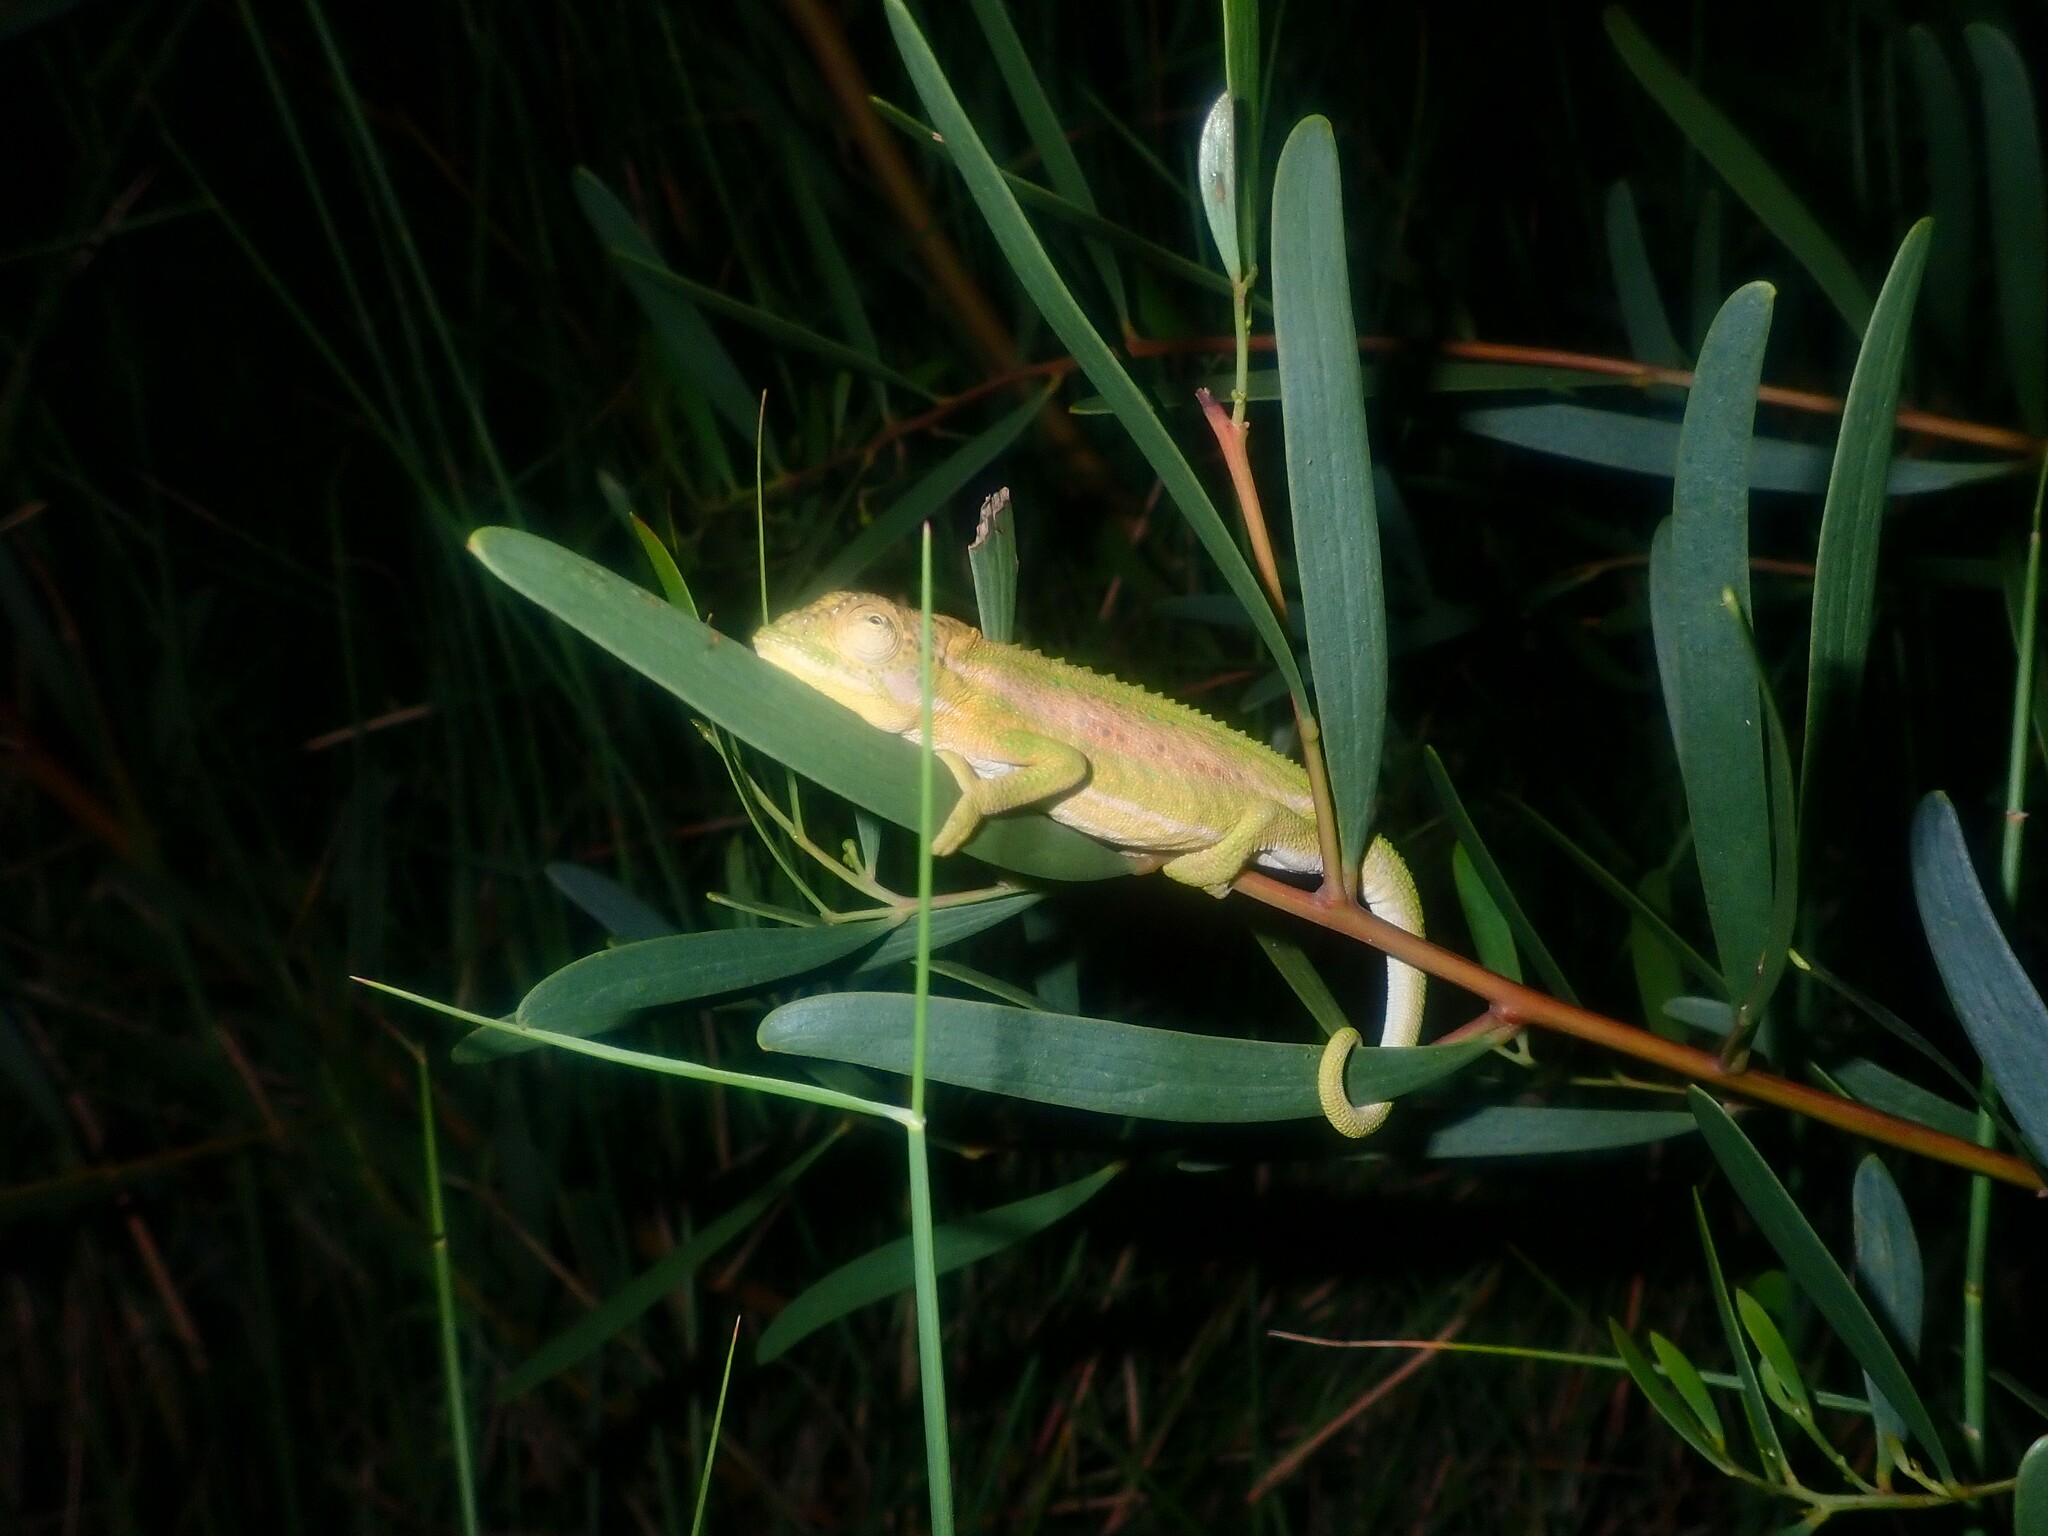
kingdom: Animalia
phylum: Chordata
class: Squamata
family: Chamaeleonidae
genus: Bradypodion
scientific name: Bradypodion pumilum
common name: Cape dwarf chameleon
